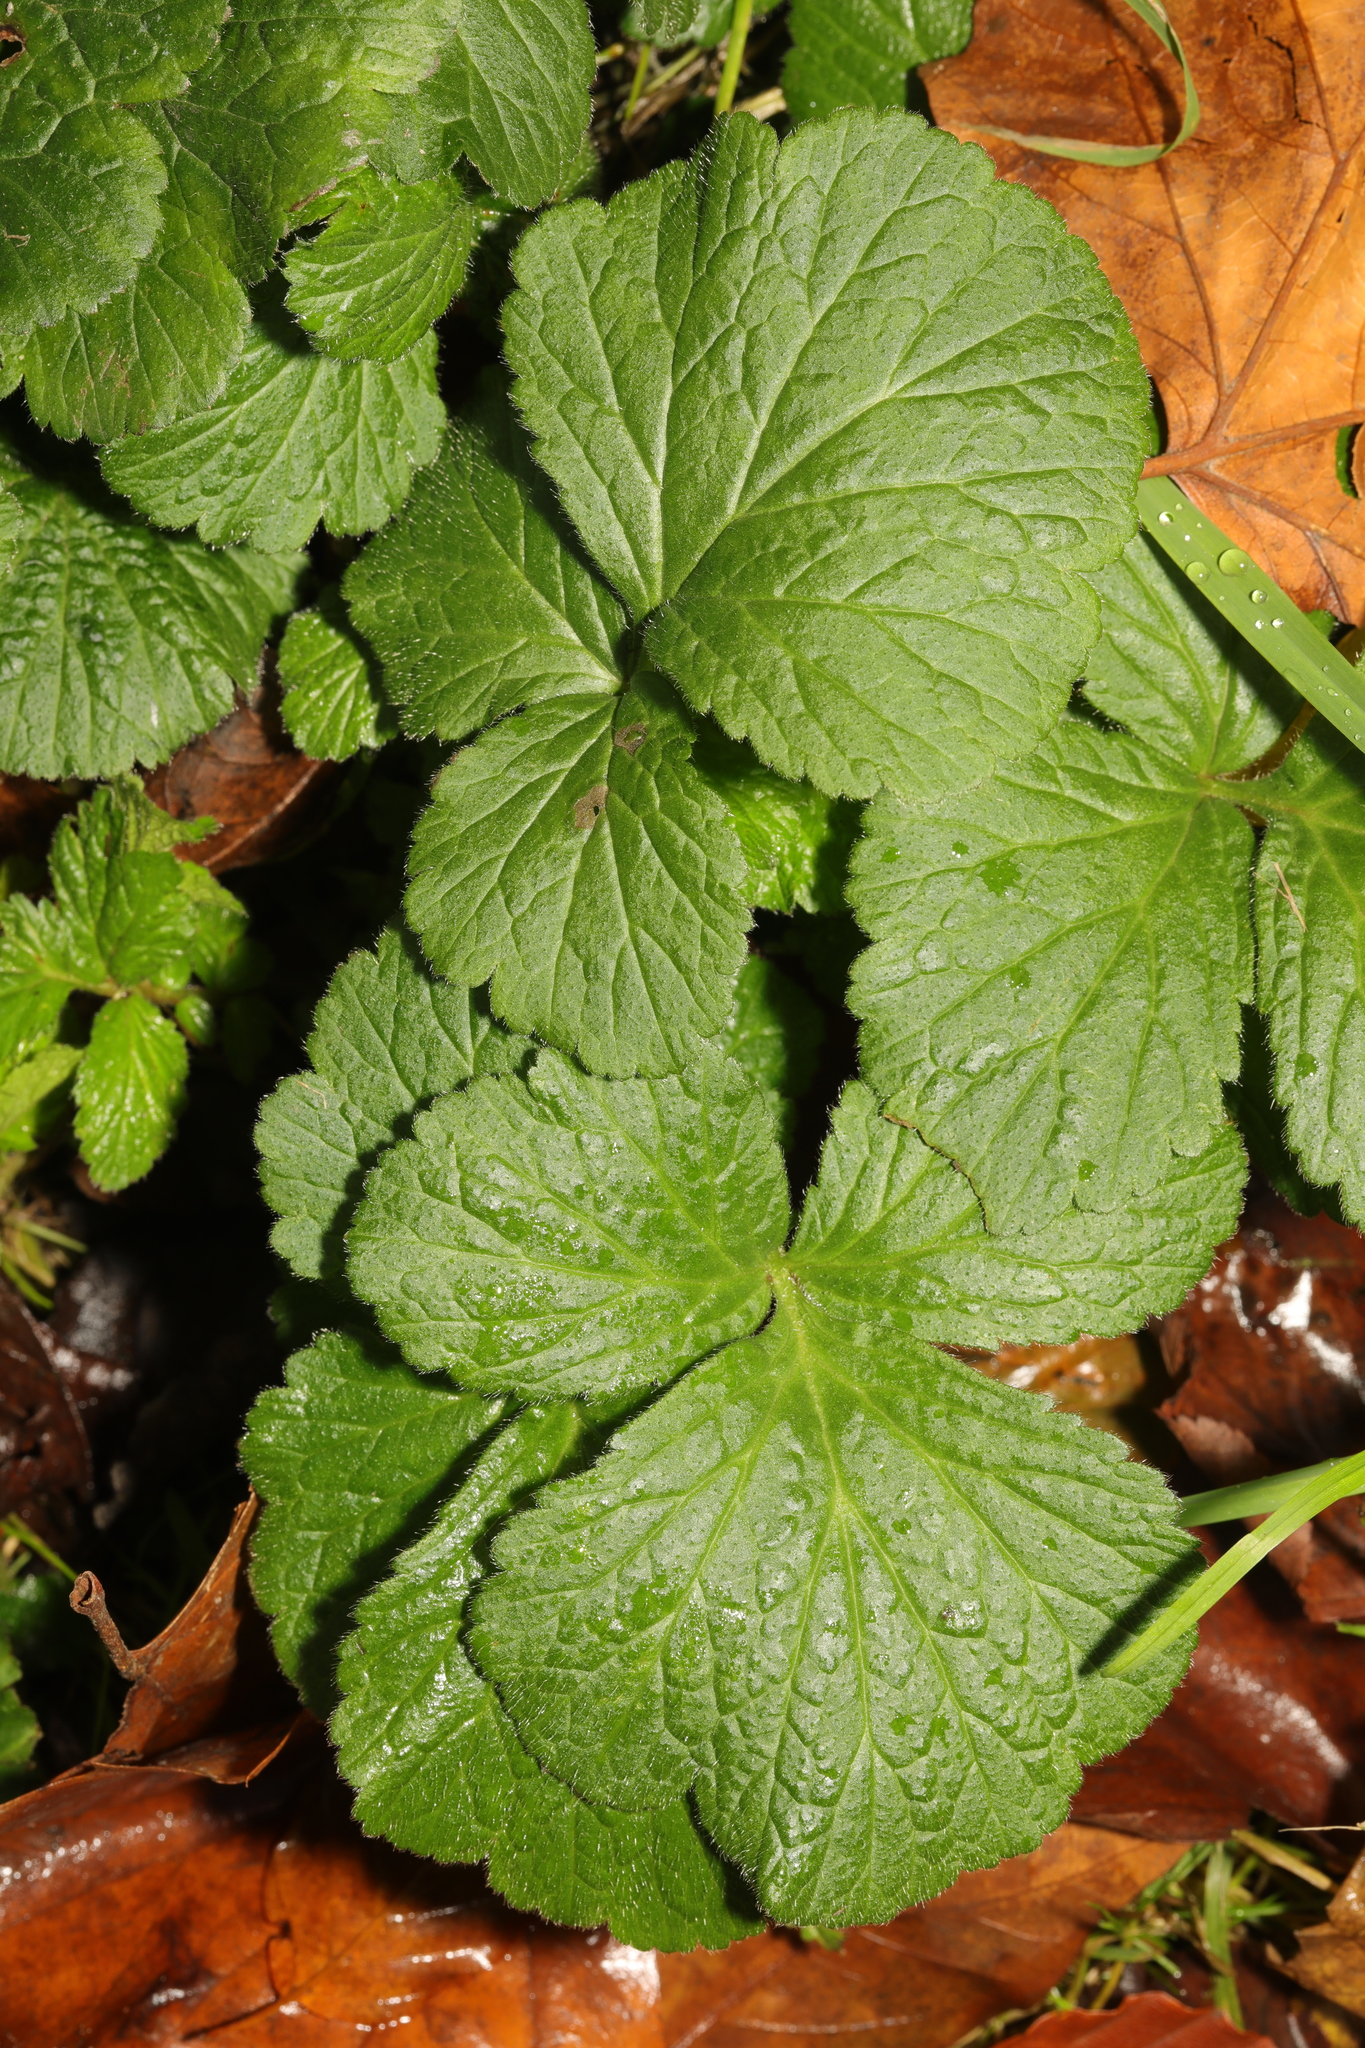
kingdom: Plantae
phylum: Tracheophyta
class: Magnoliopsida
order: Rosales
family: Rosaceae
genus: Geum
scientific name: Geum urbanum
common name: Wood avens
